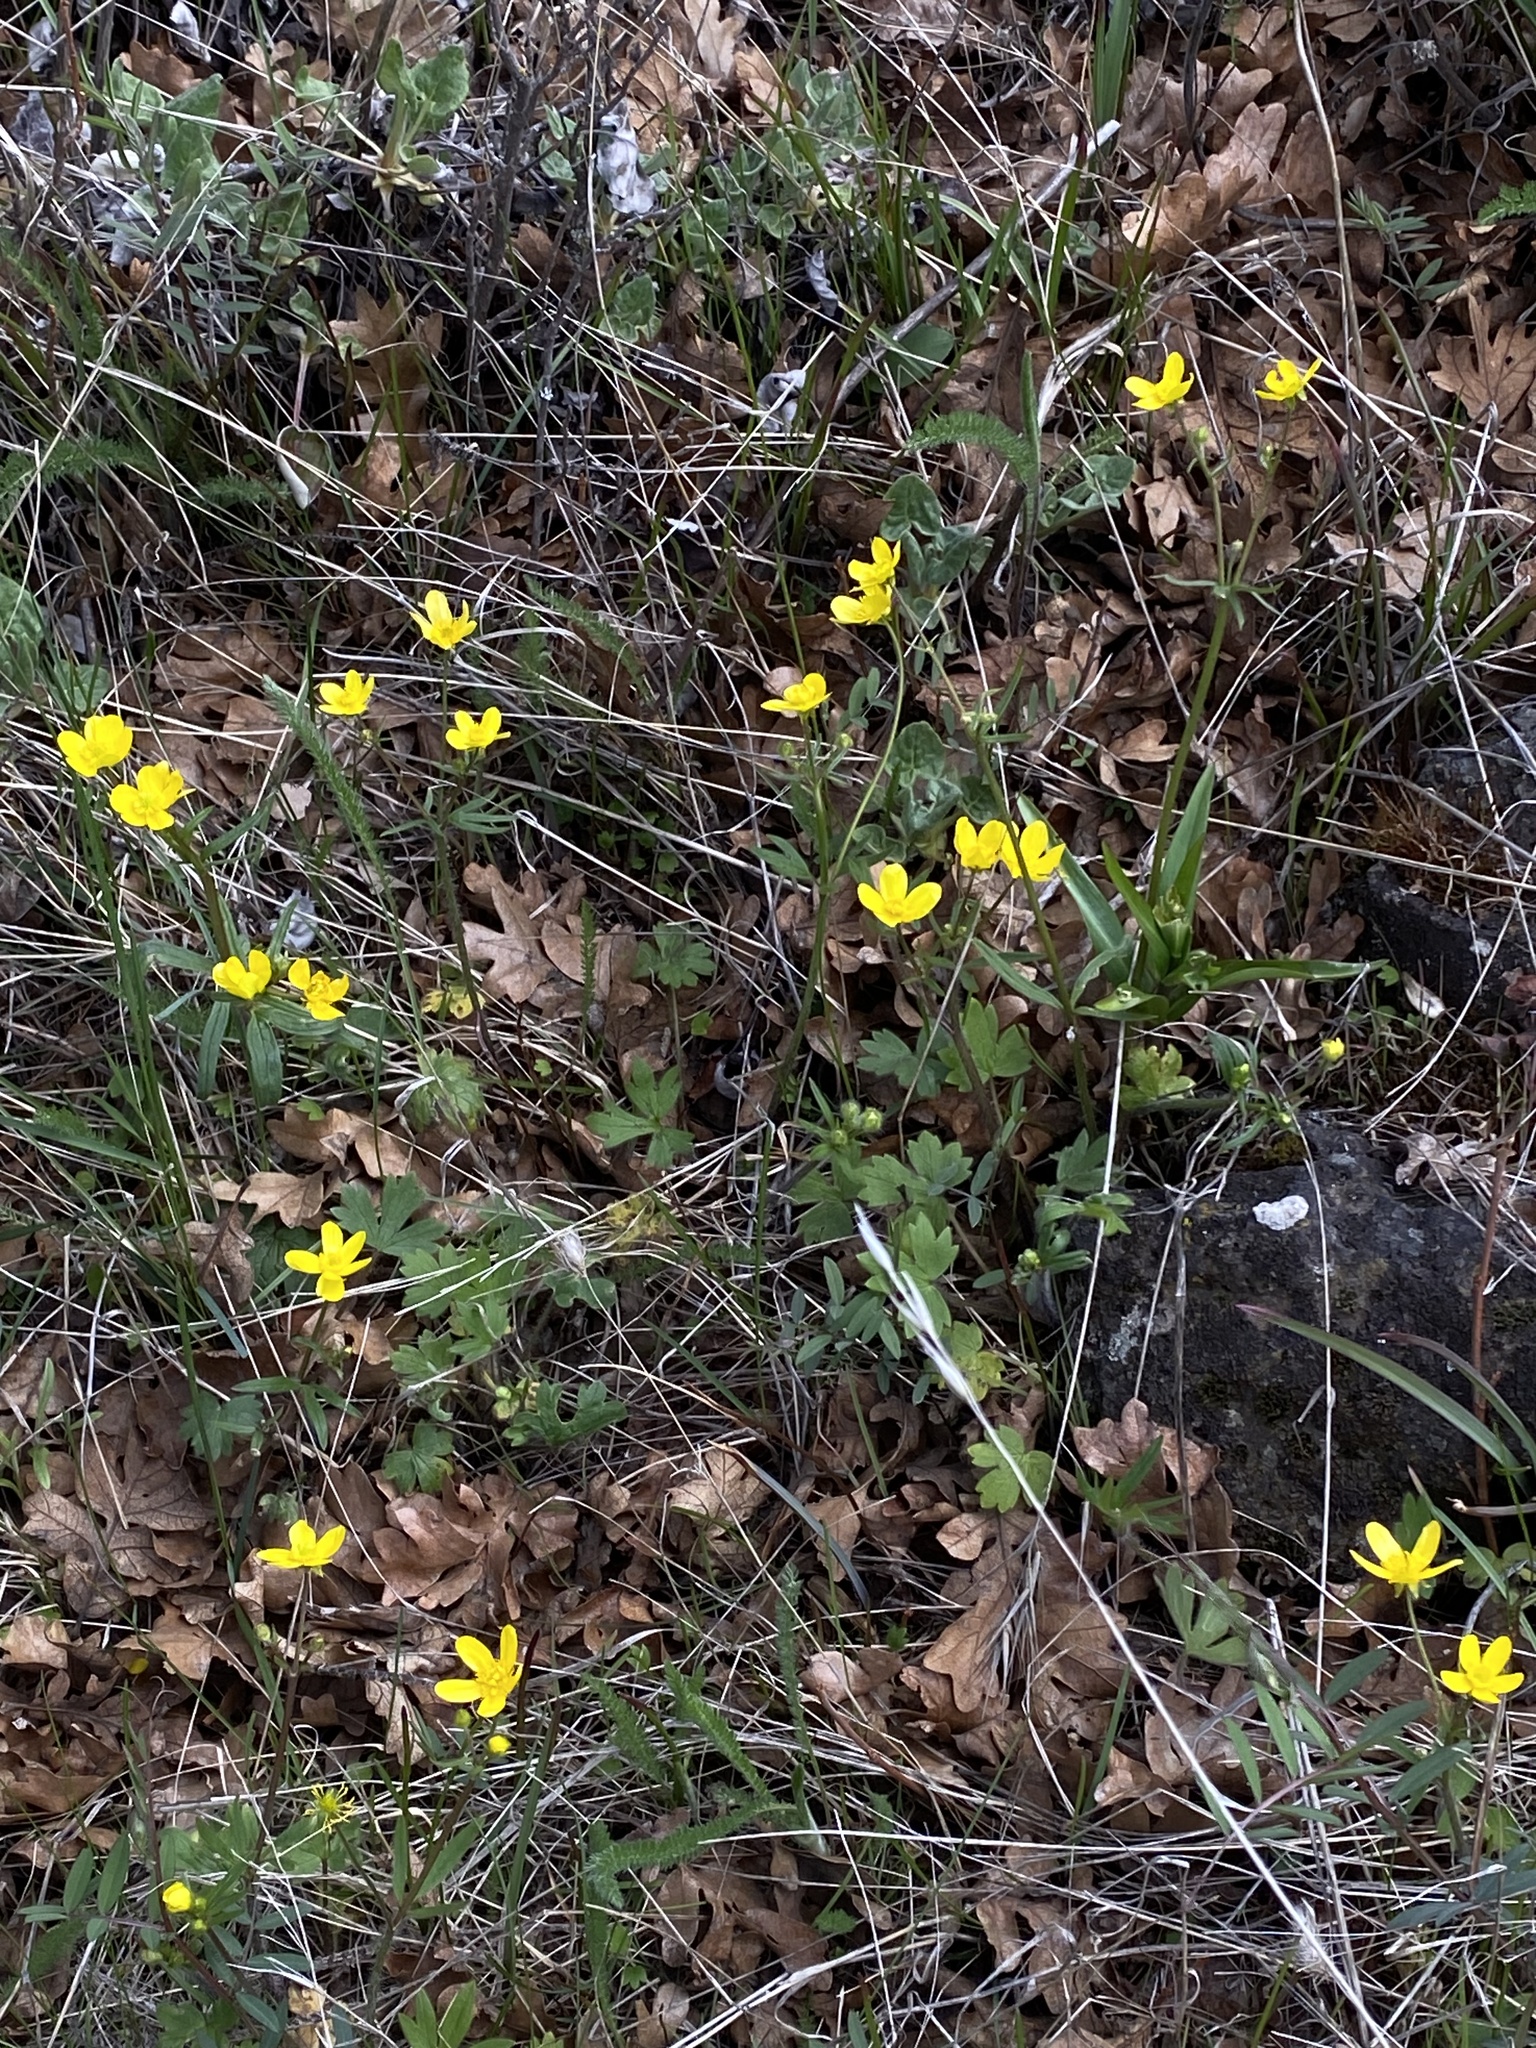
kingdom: Plantae
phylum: Tracheophyta
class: Magnoliopsida
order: Ranunculales
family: Ranunculaceae
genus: Ranunculus
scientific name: Ranunculus occidentalis
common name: Western buttercup
